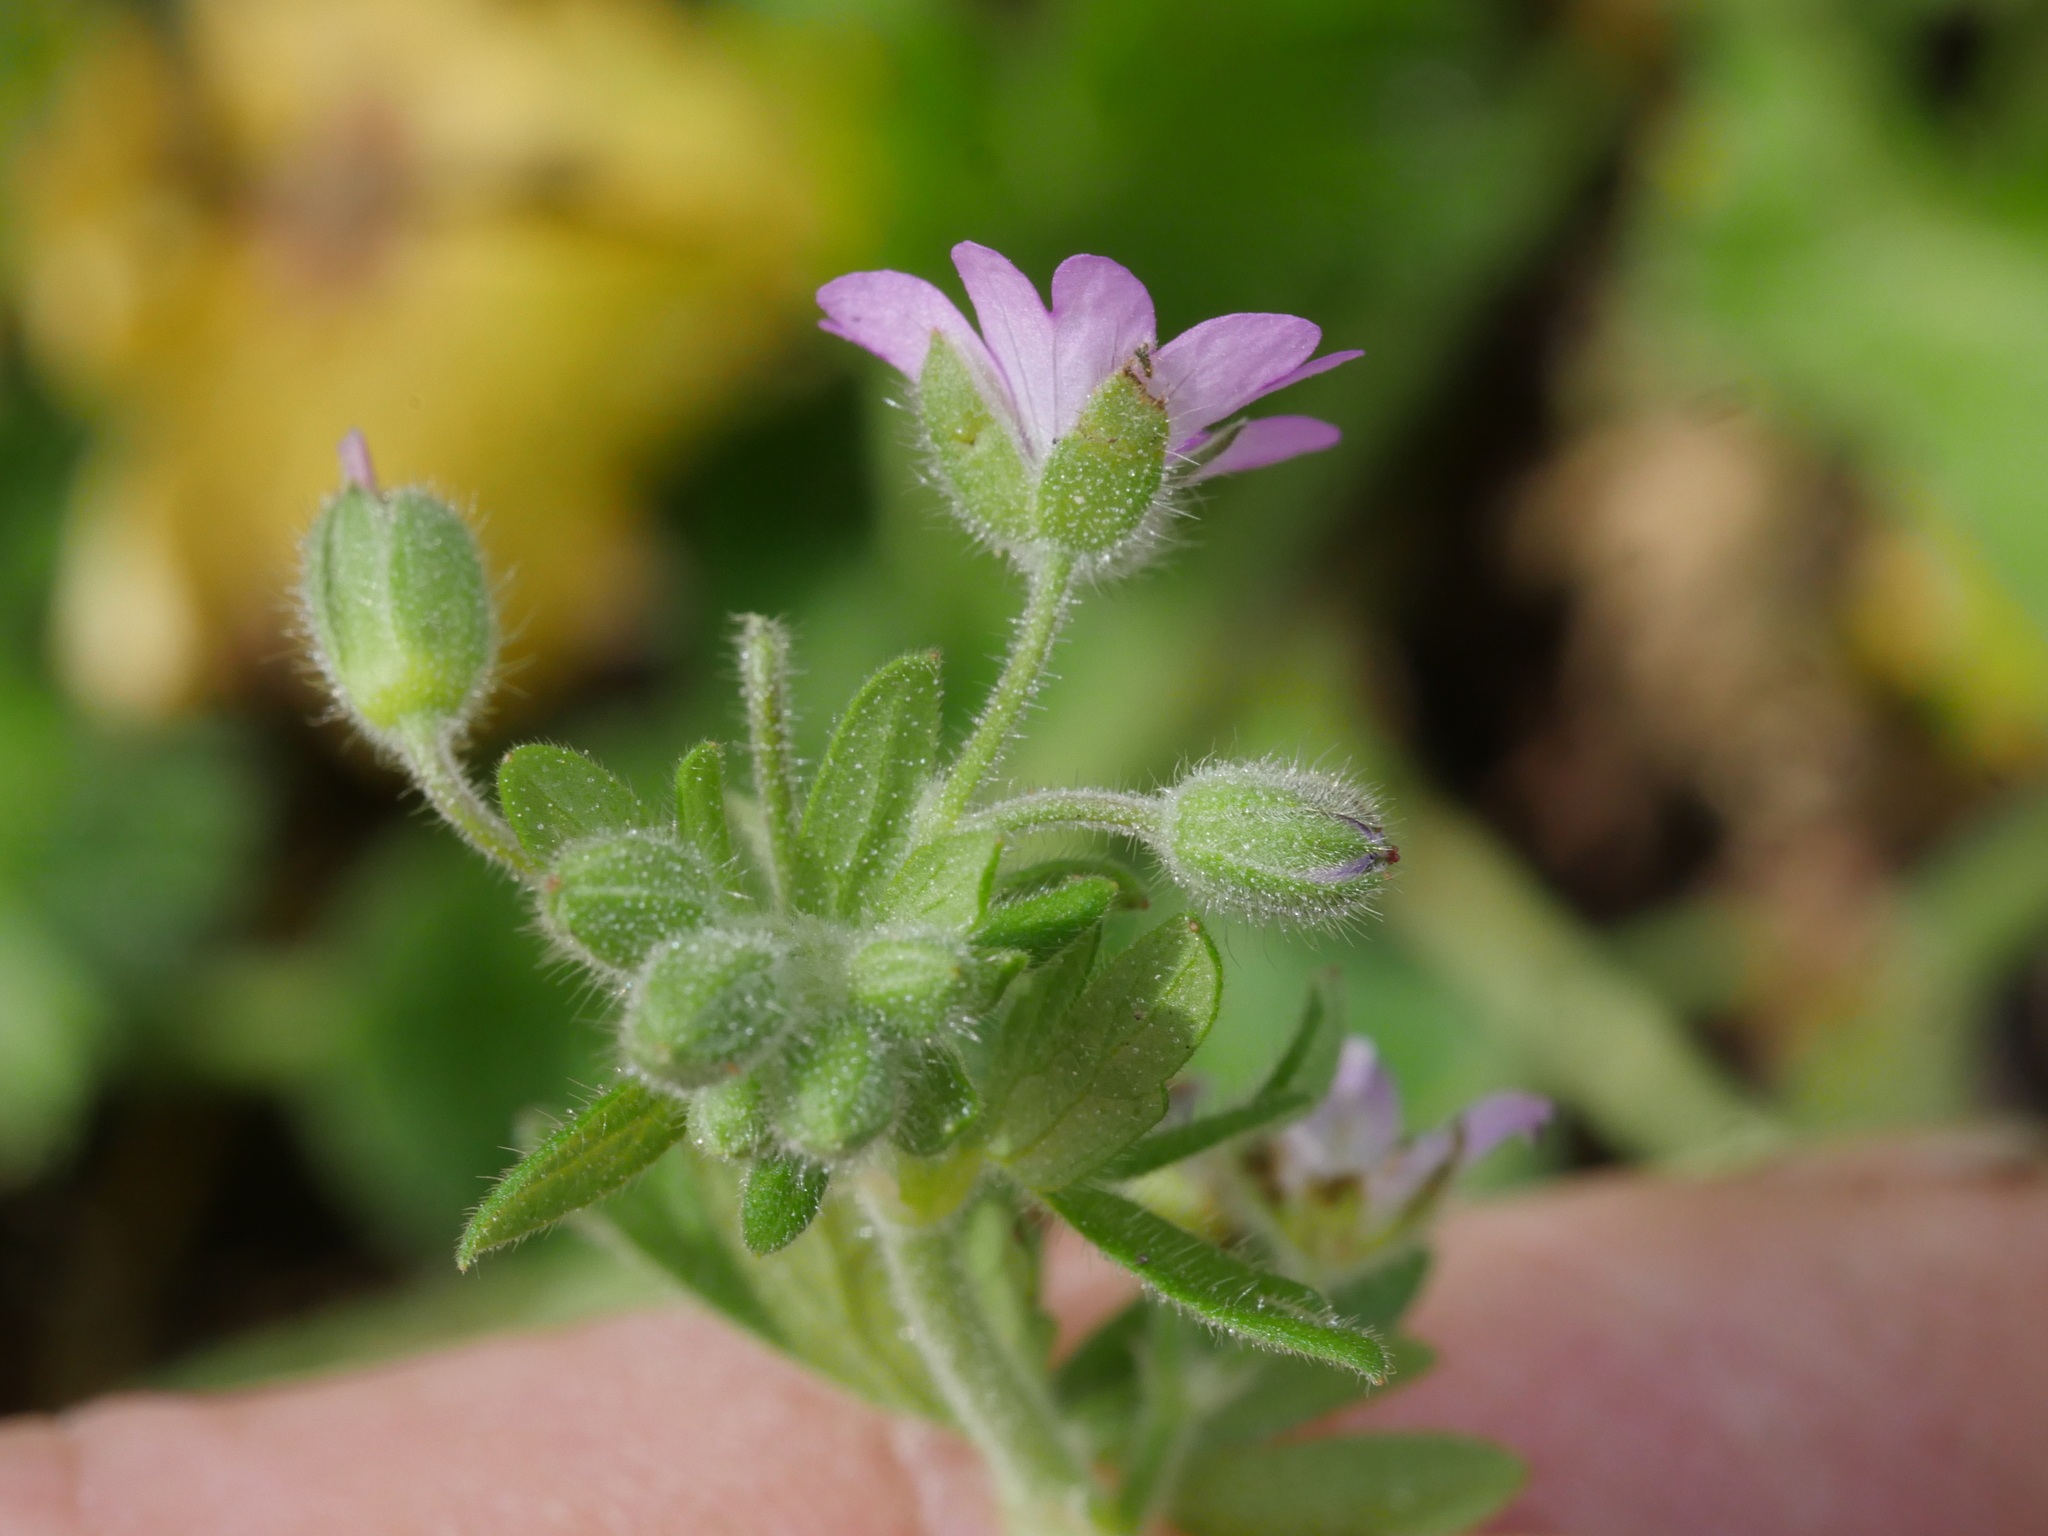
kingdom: Plantae
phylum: Tracheophyta
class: Magnoliopsida
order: Geraniales
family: Geraniaceae
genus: Geranium
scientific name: Geranium molle
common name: Dove's-foot crane's-bill
